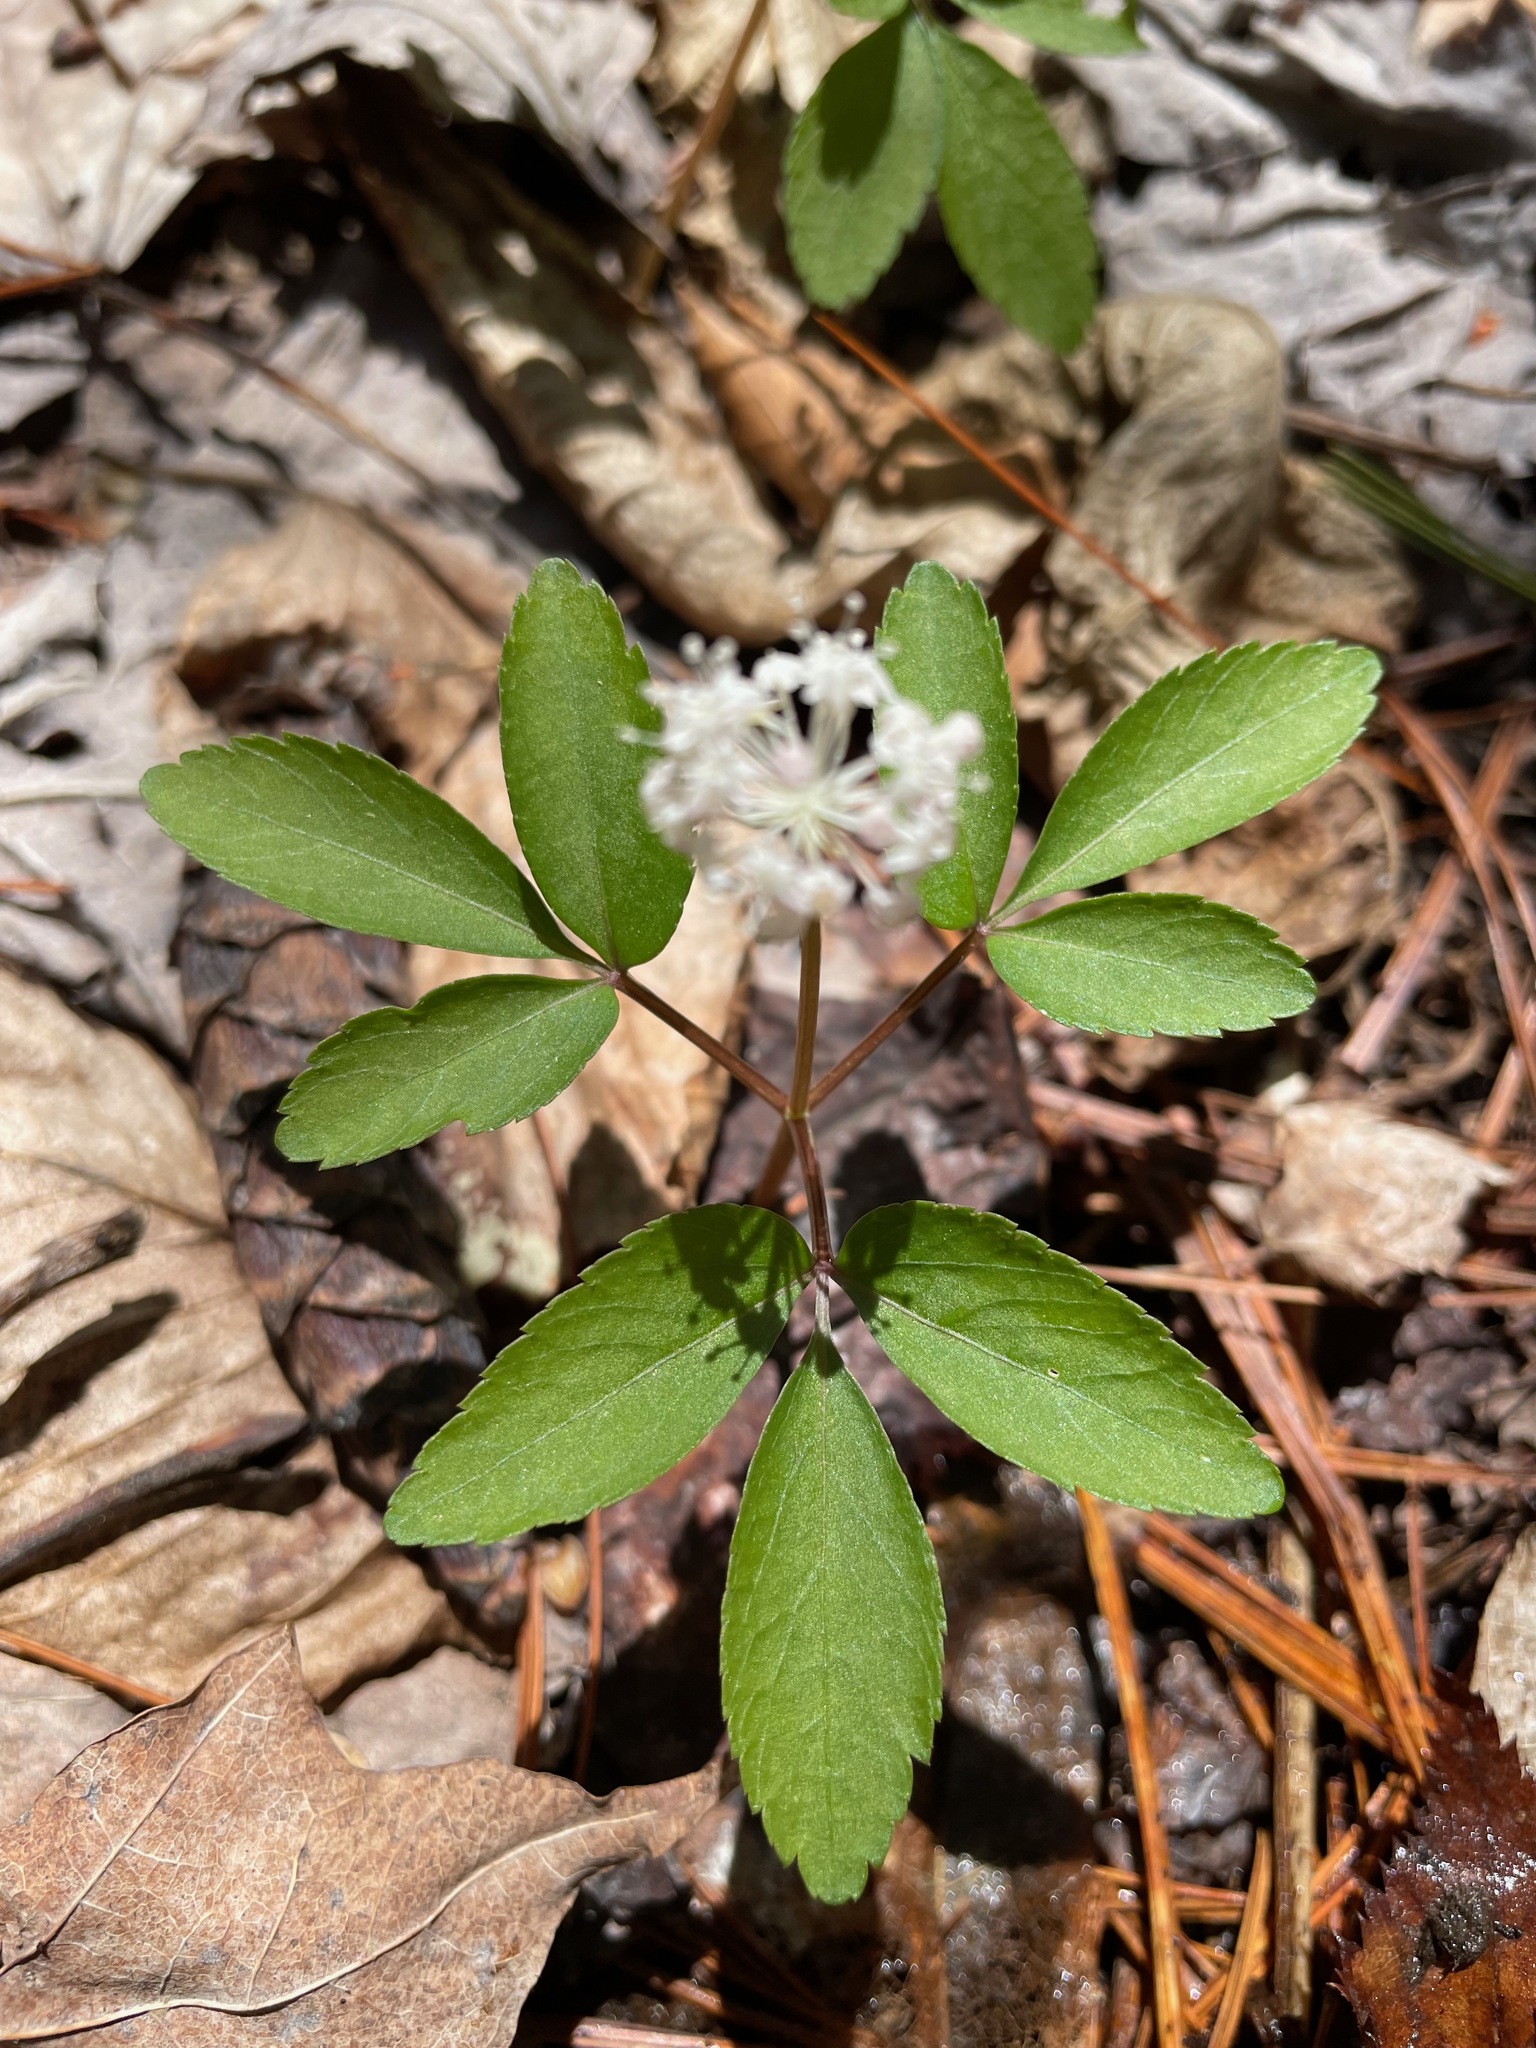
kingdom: Plantae
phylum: Tracheophyta
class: Magnoliopsida
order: Apiales
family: Araliaceae
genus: Panax
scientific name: Panax trifolius
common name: Dwarf ginseng
